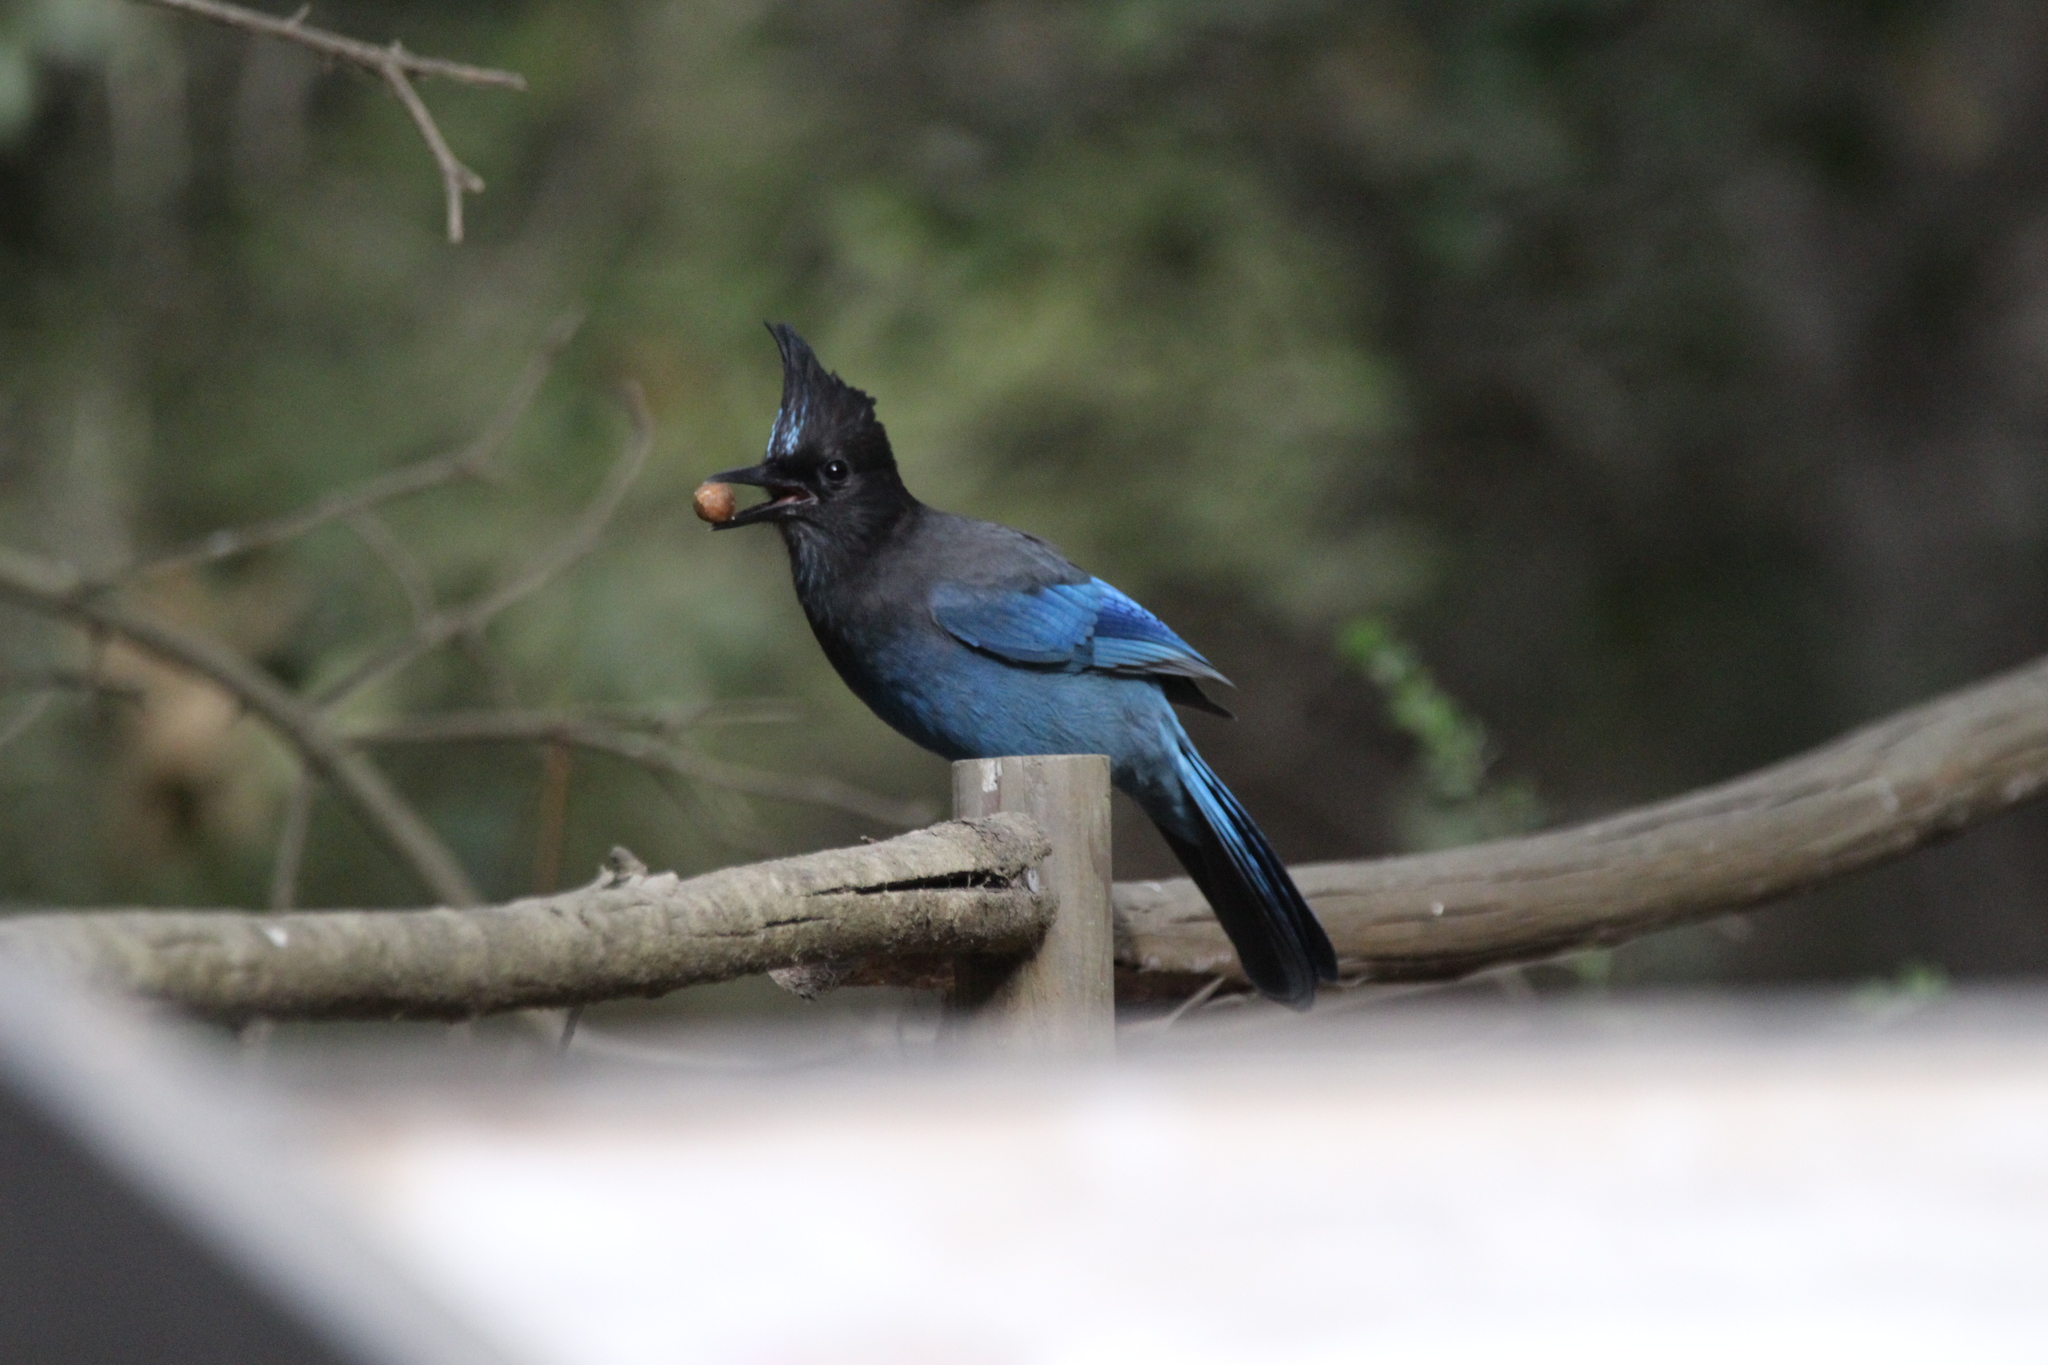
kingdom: Animalia
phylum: Chordata
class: Aves
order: Passeriformes
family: Corvidae
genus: Cyanocitta
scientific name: Cyanocitta stelleri
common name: Steller's jay
